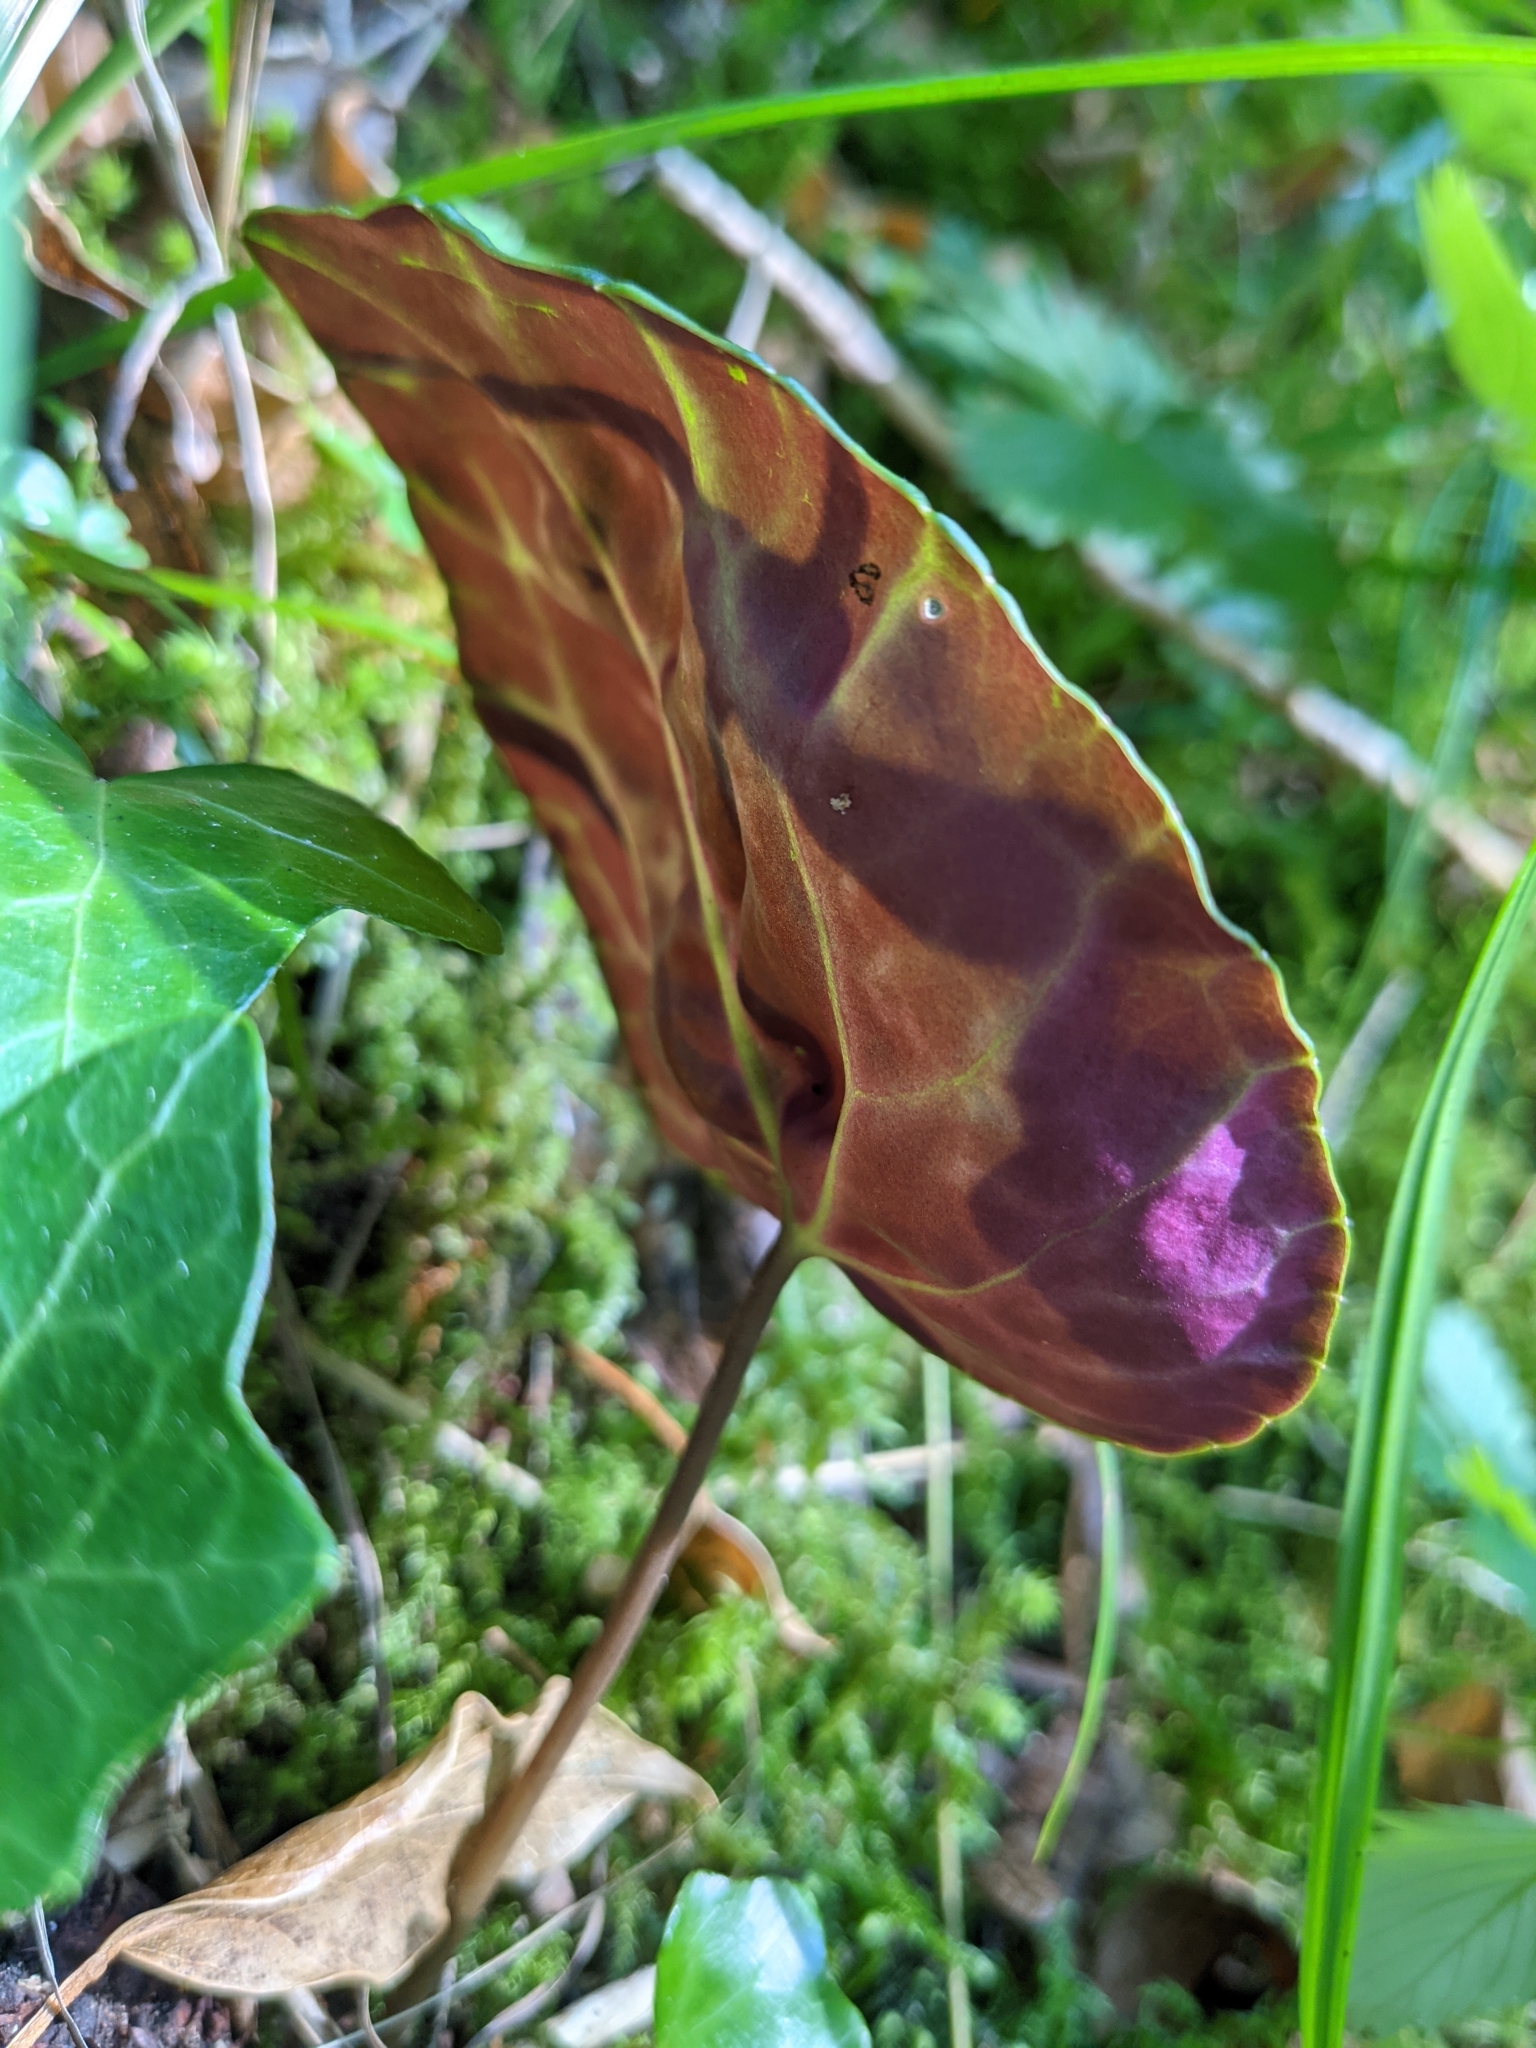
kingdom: Plantae
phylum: Tracheophyta
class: Magnoliopsida
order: Ericales
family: Primulaceae
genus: Cyclamen
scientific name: Cyclamen purpurascens
